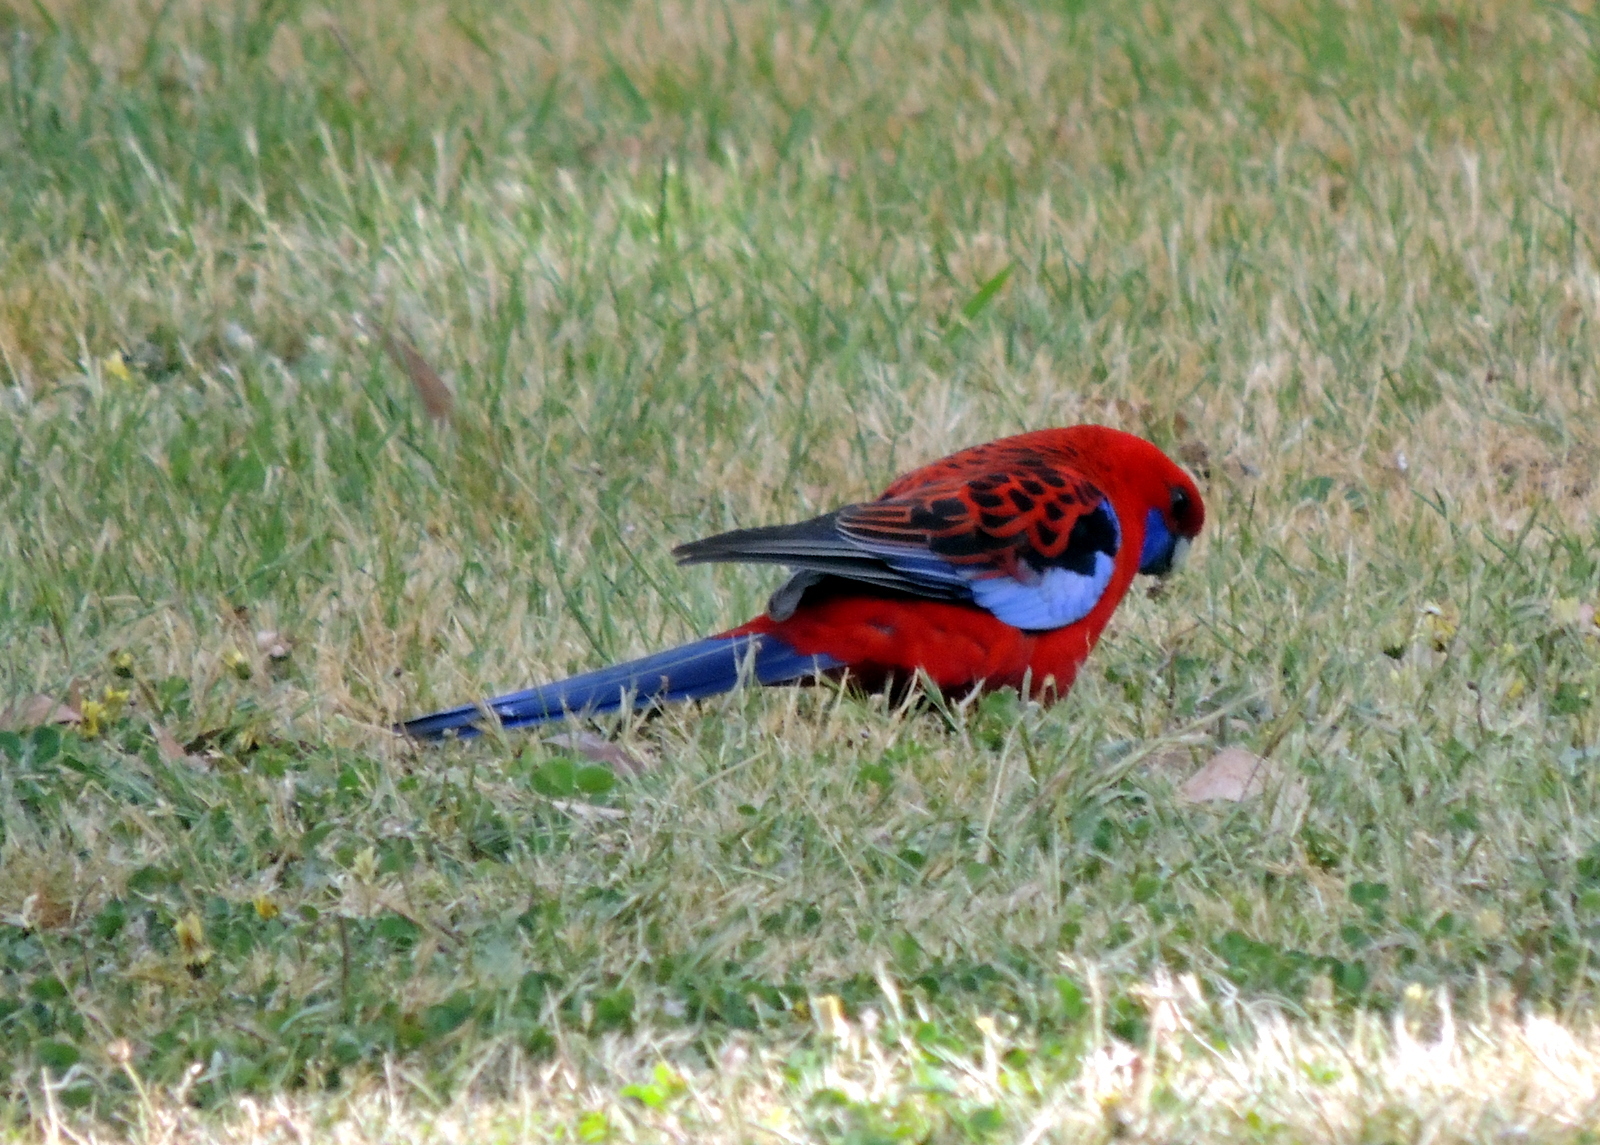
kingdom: Animalia
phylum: Chordata
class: Aves
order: Psittaciformes
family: Psittacidae
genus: Platycercus
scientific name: Platycercus elegans
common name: Crimson rosella
